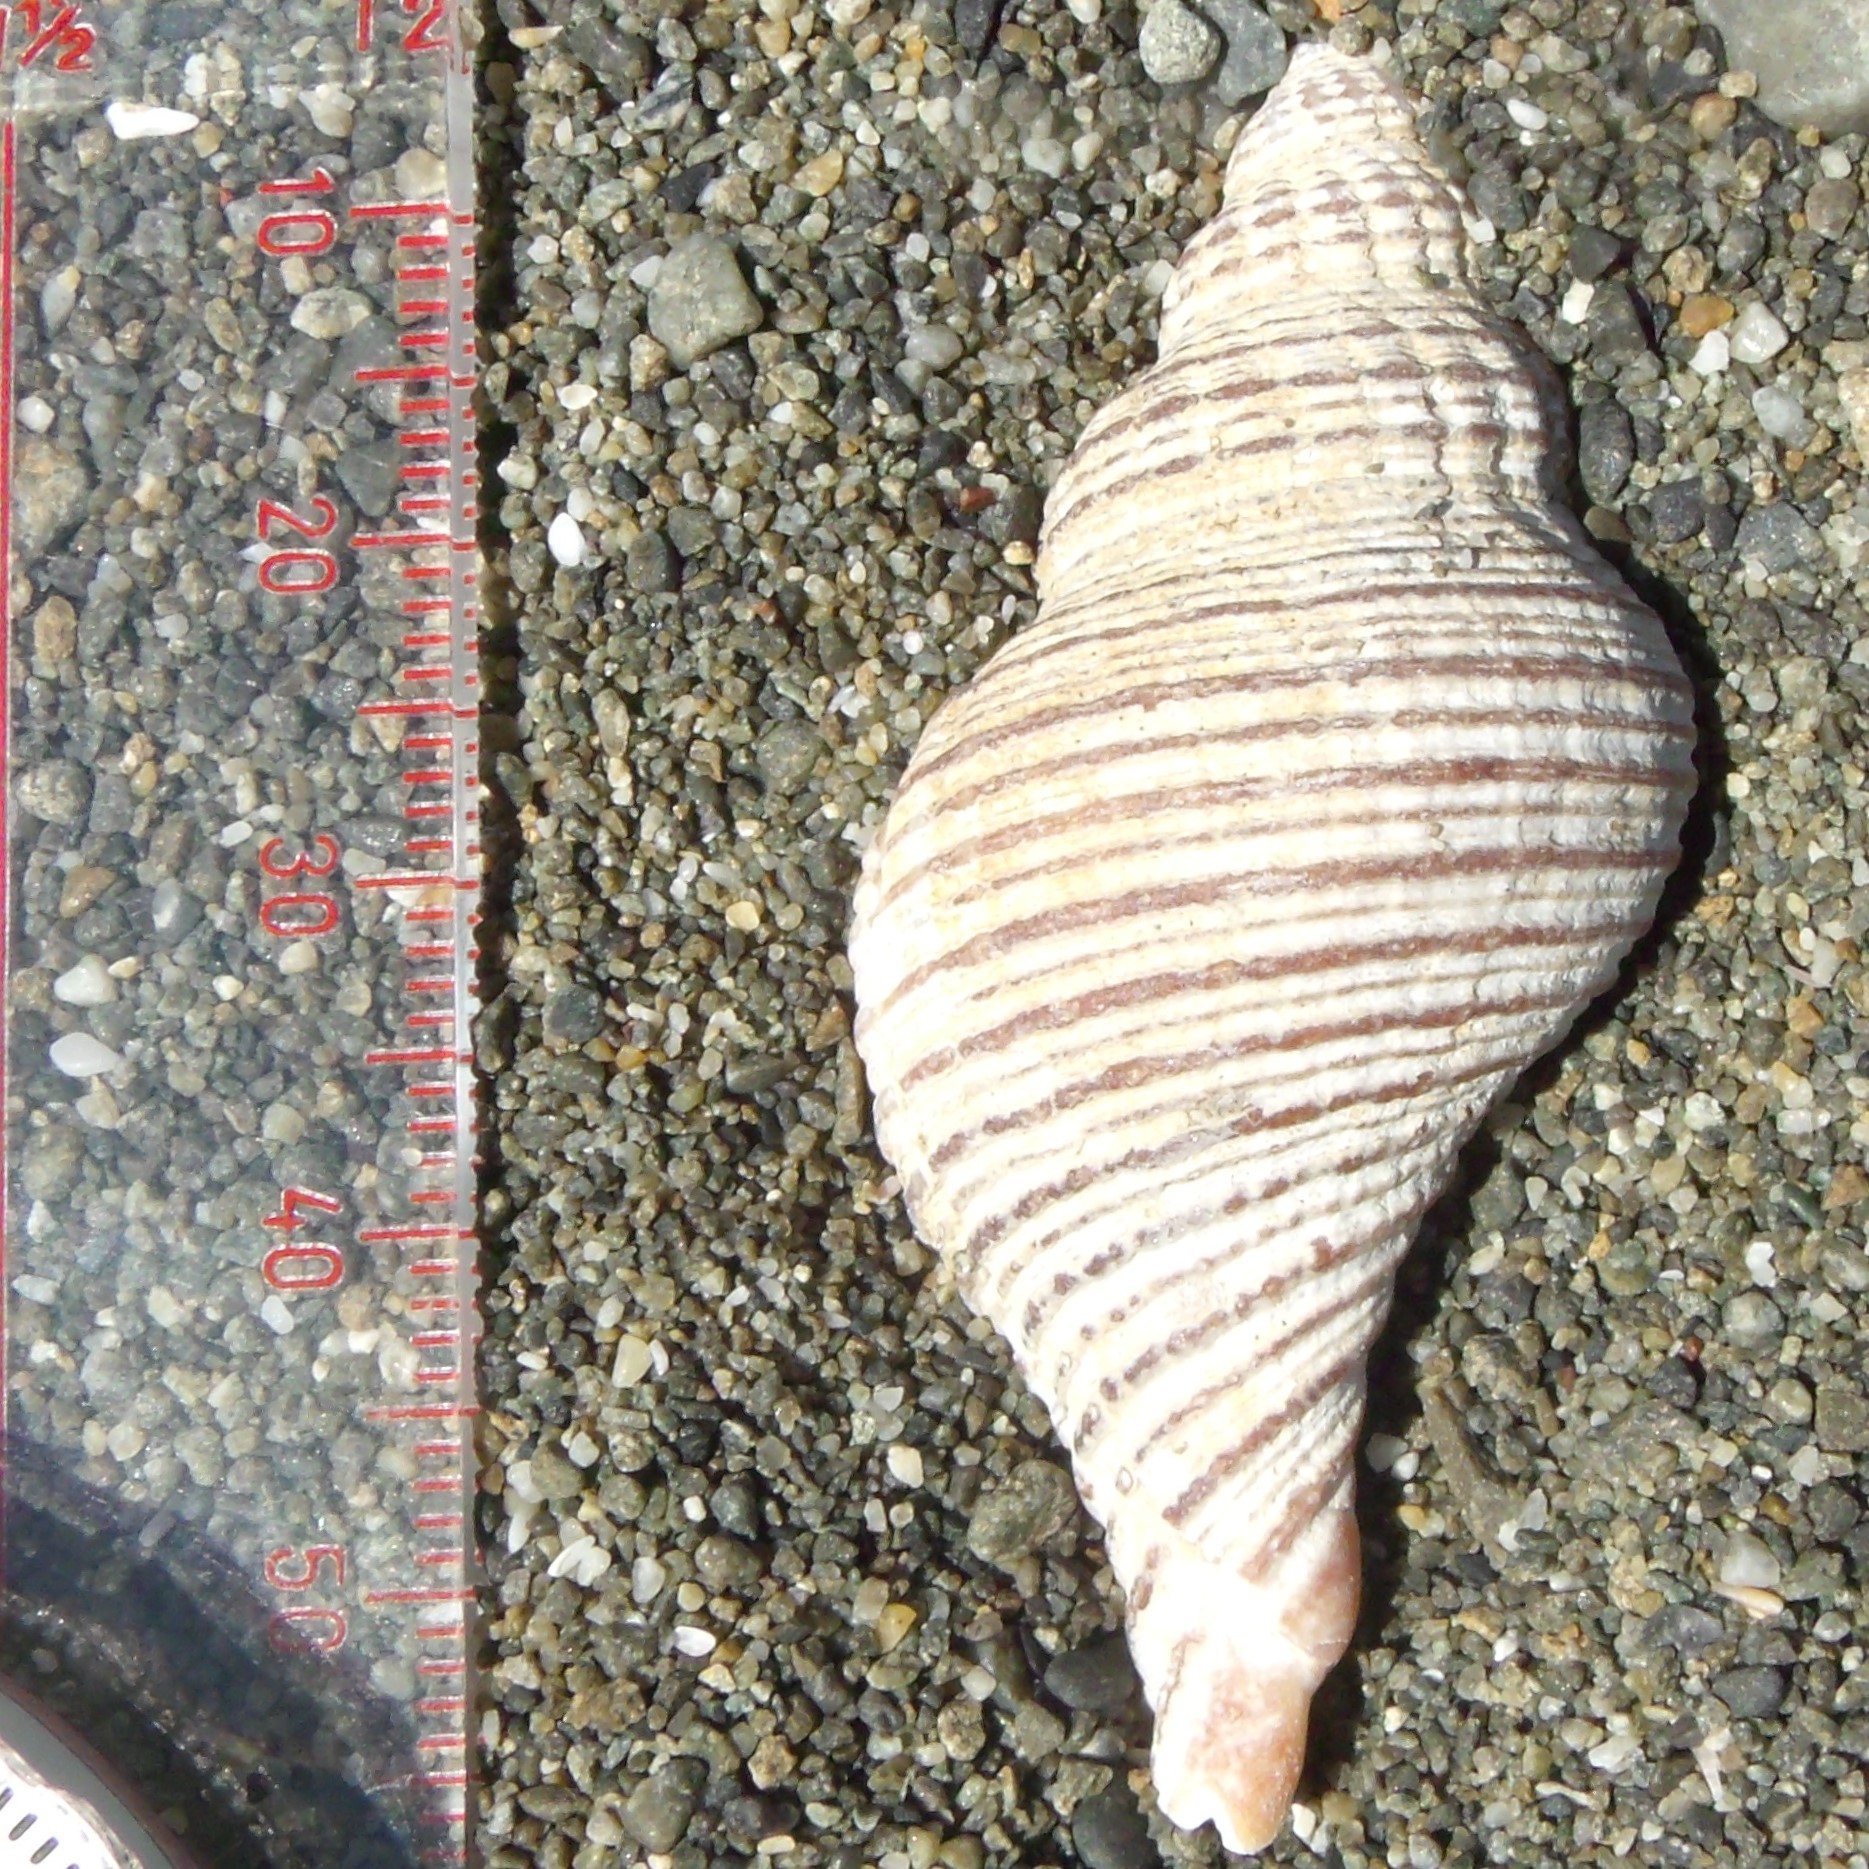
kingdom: Animalia
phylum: Mollusca
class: Gastropoda
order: Neogastropoda
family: Austrosiphonidae
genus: Penion
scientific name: Penion sulcatus
